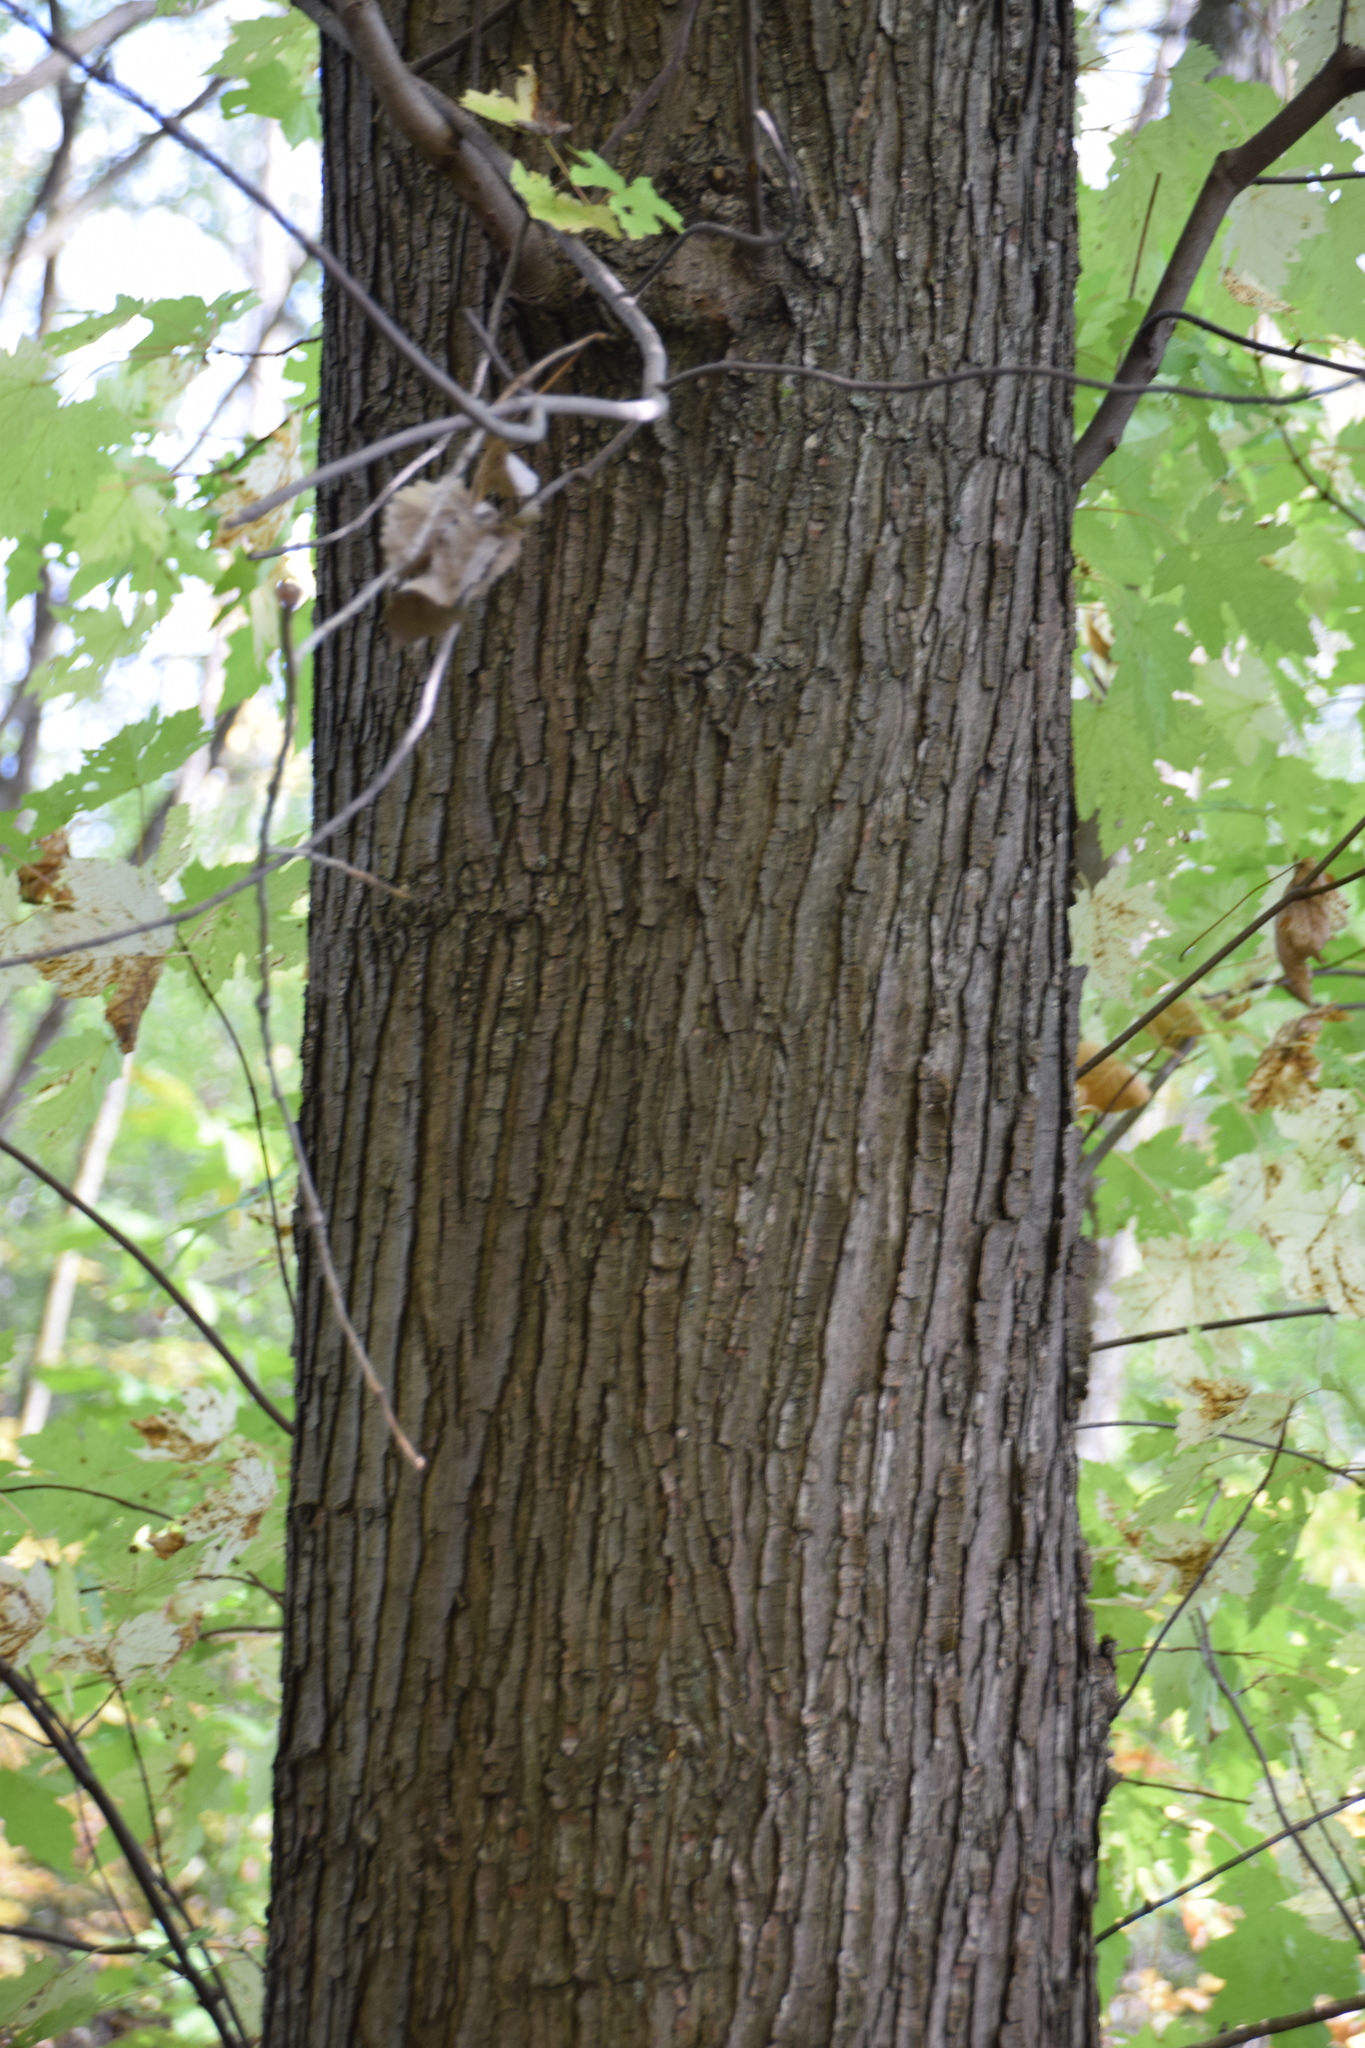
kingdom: Plantae
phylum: Tracheophyta
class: Magnoliopsida
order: Sapindales
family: Sapindaceae
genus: Acer
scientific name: Acer saccharinum
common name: Silver maple
